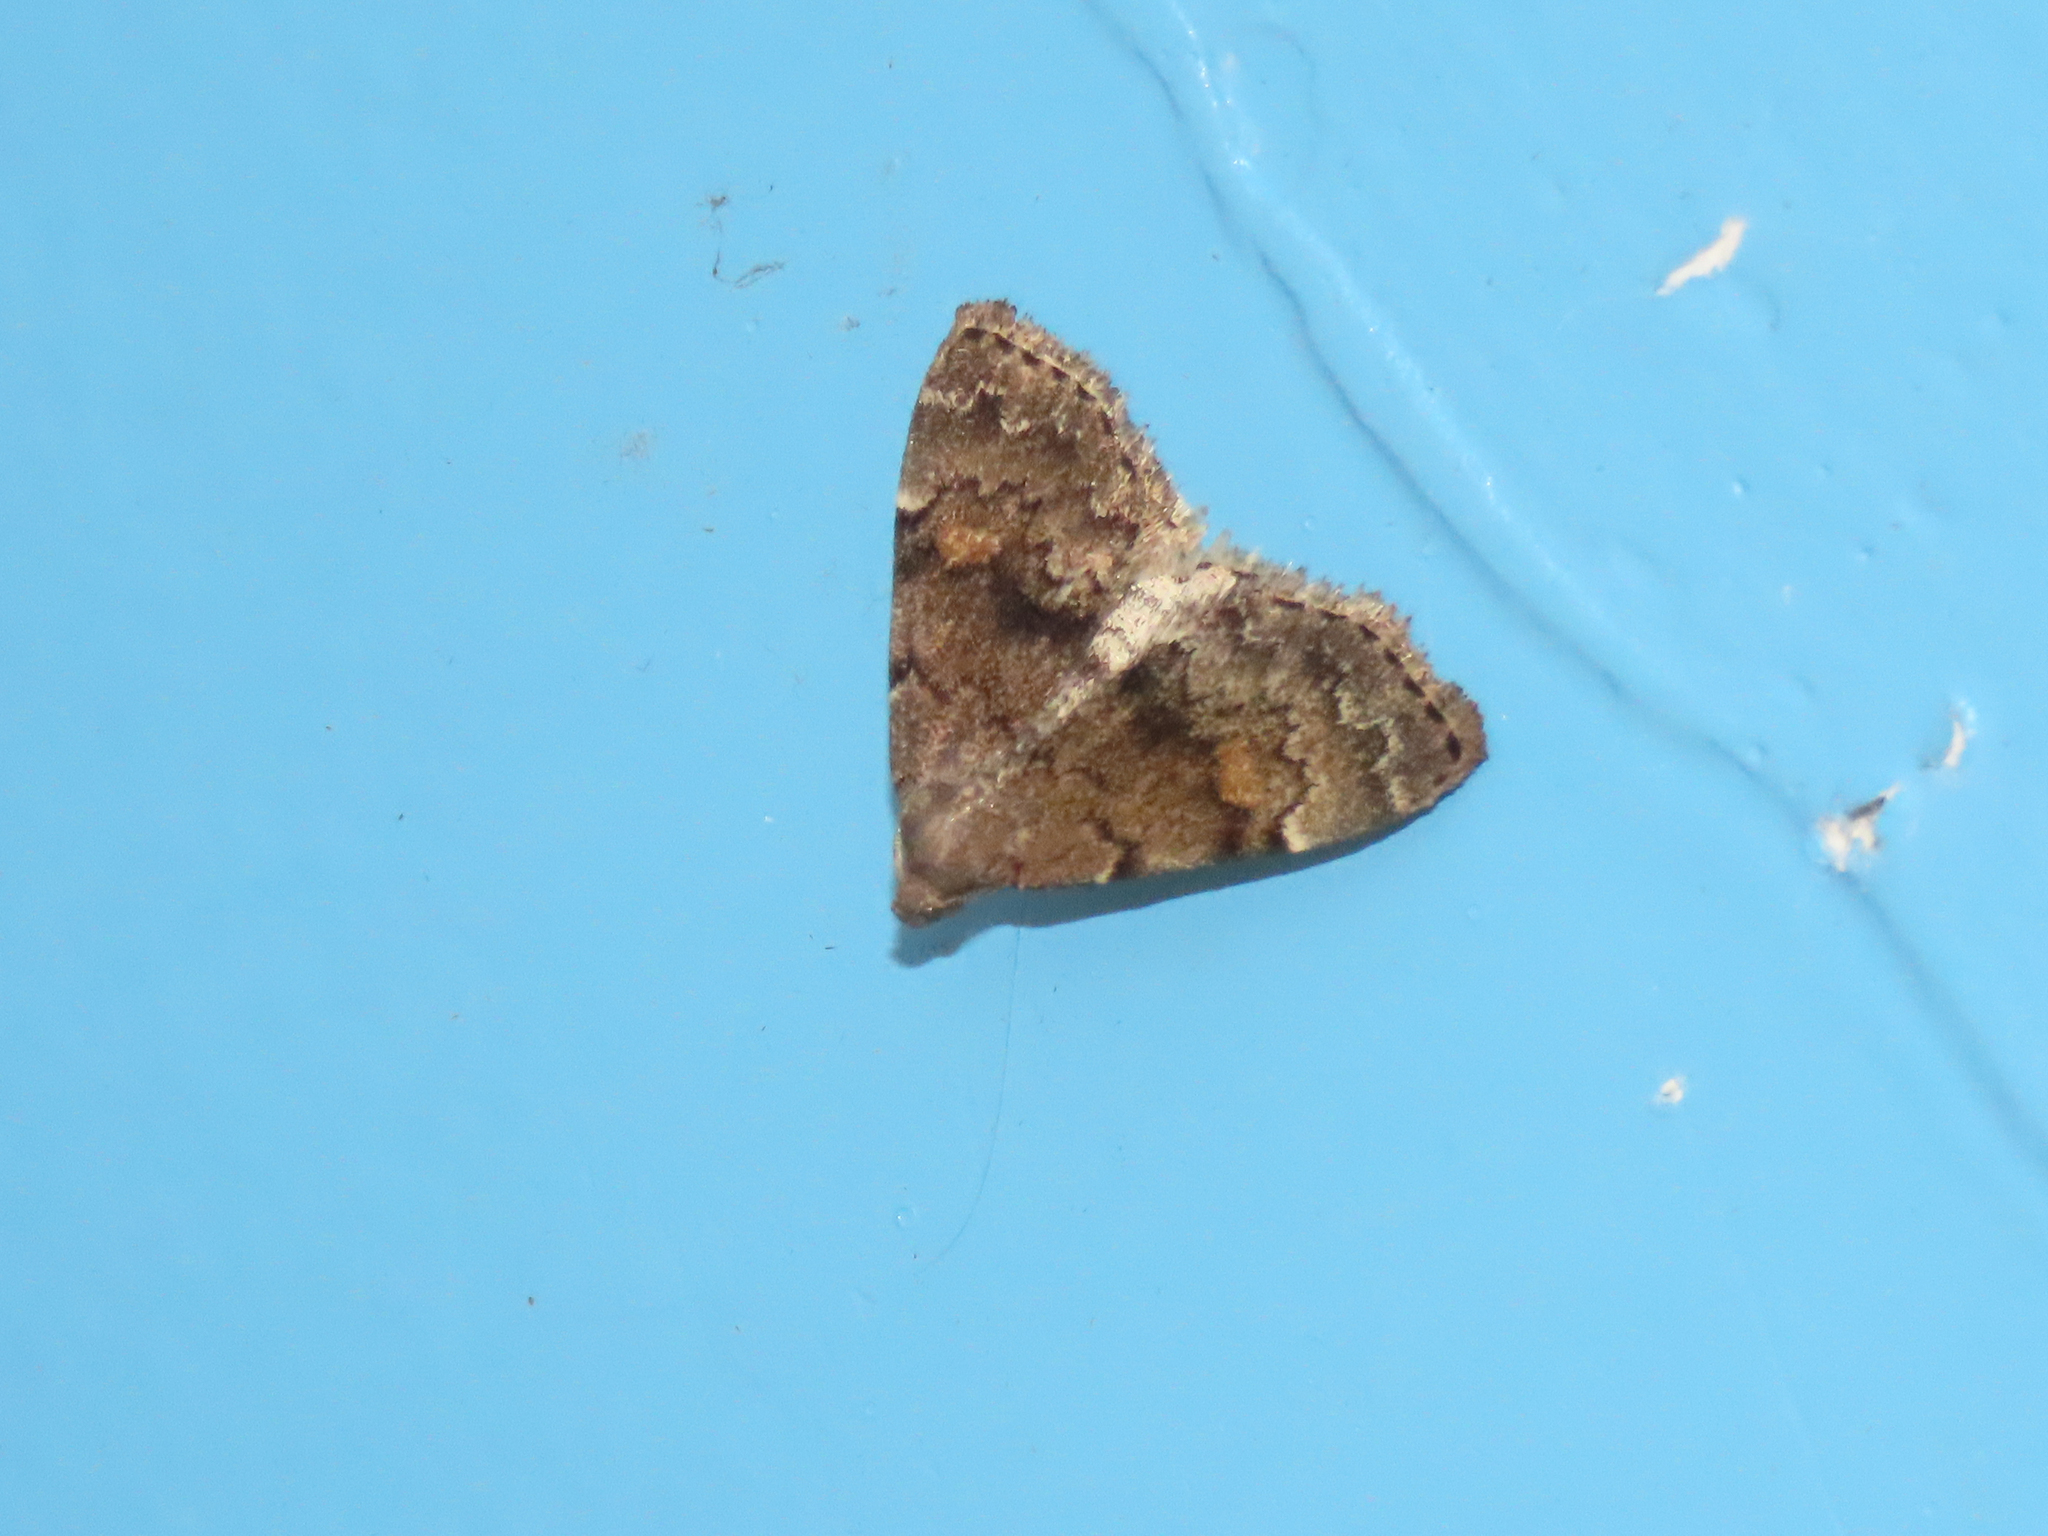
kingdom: Animalia
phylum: Arthropoda
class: Insecta
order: Lepidoptera
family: Erebidae
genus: Idia
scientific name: Idia aemula
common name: Common idia moth
